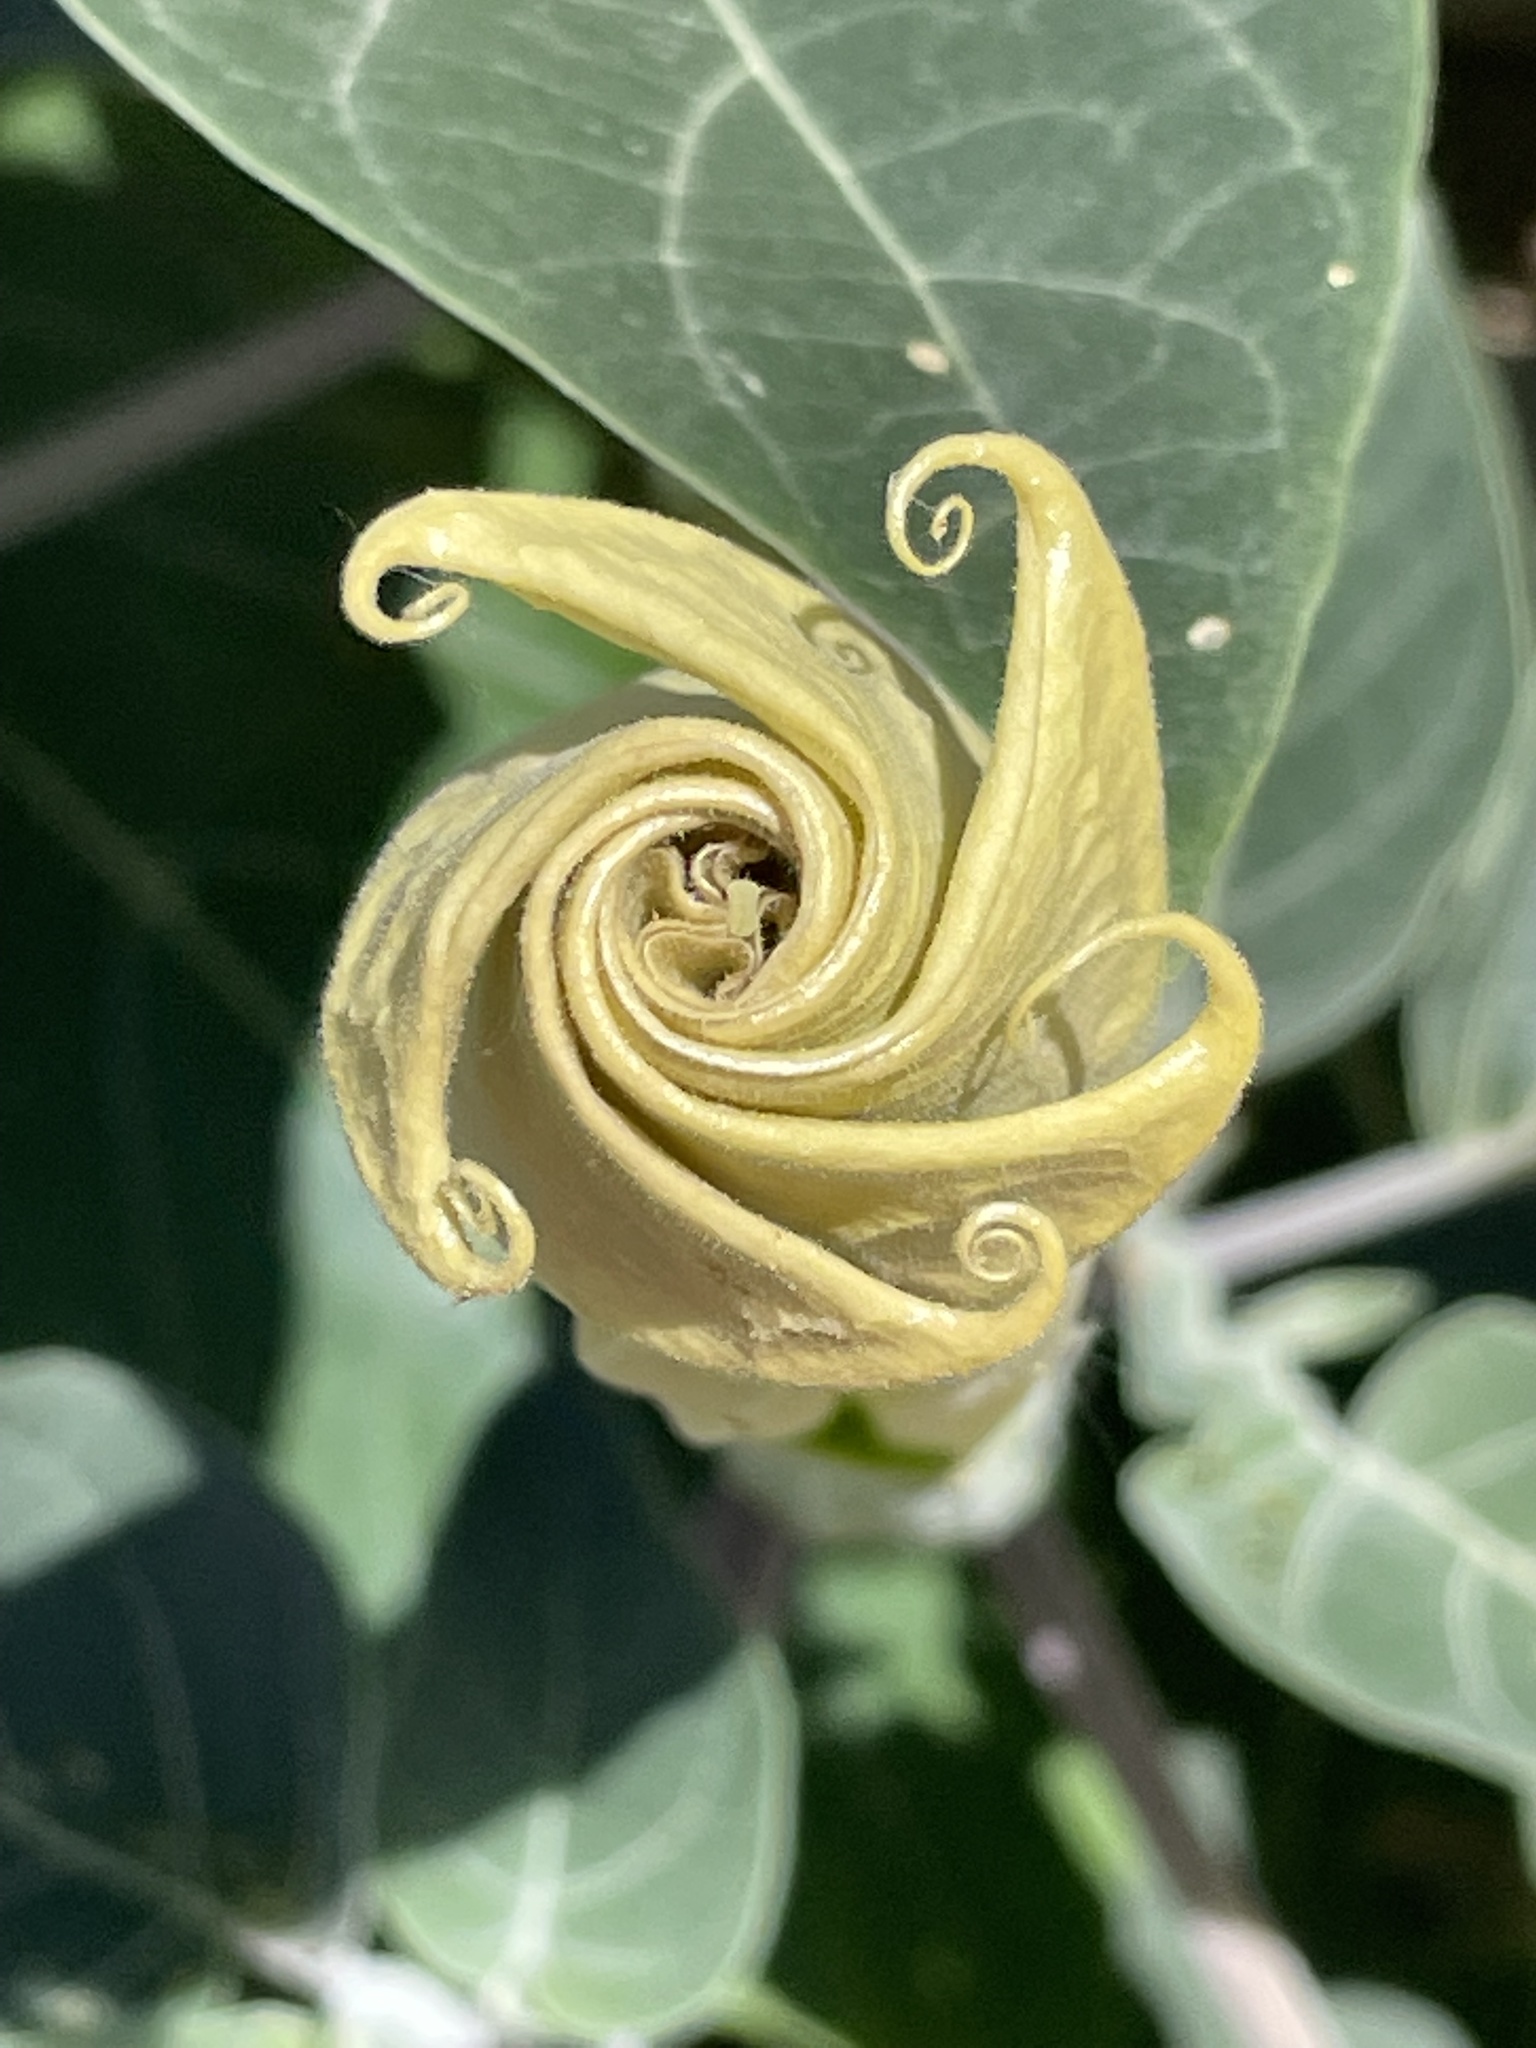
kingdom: Plantae
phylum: Tracheophyta
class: Magnoliopsida
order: Solanales
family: Solanaceae
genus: Datura
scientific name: Datura wrightii
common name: Sacred thorn-apple
